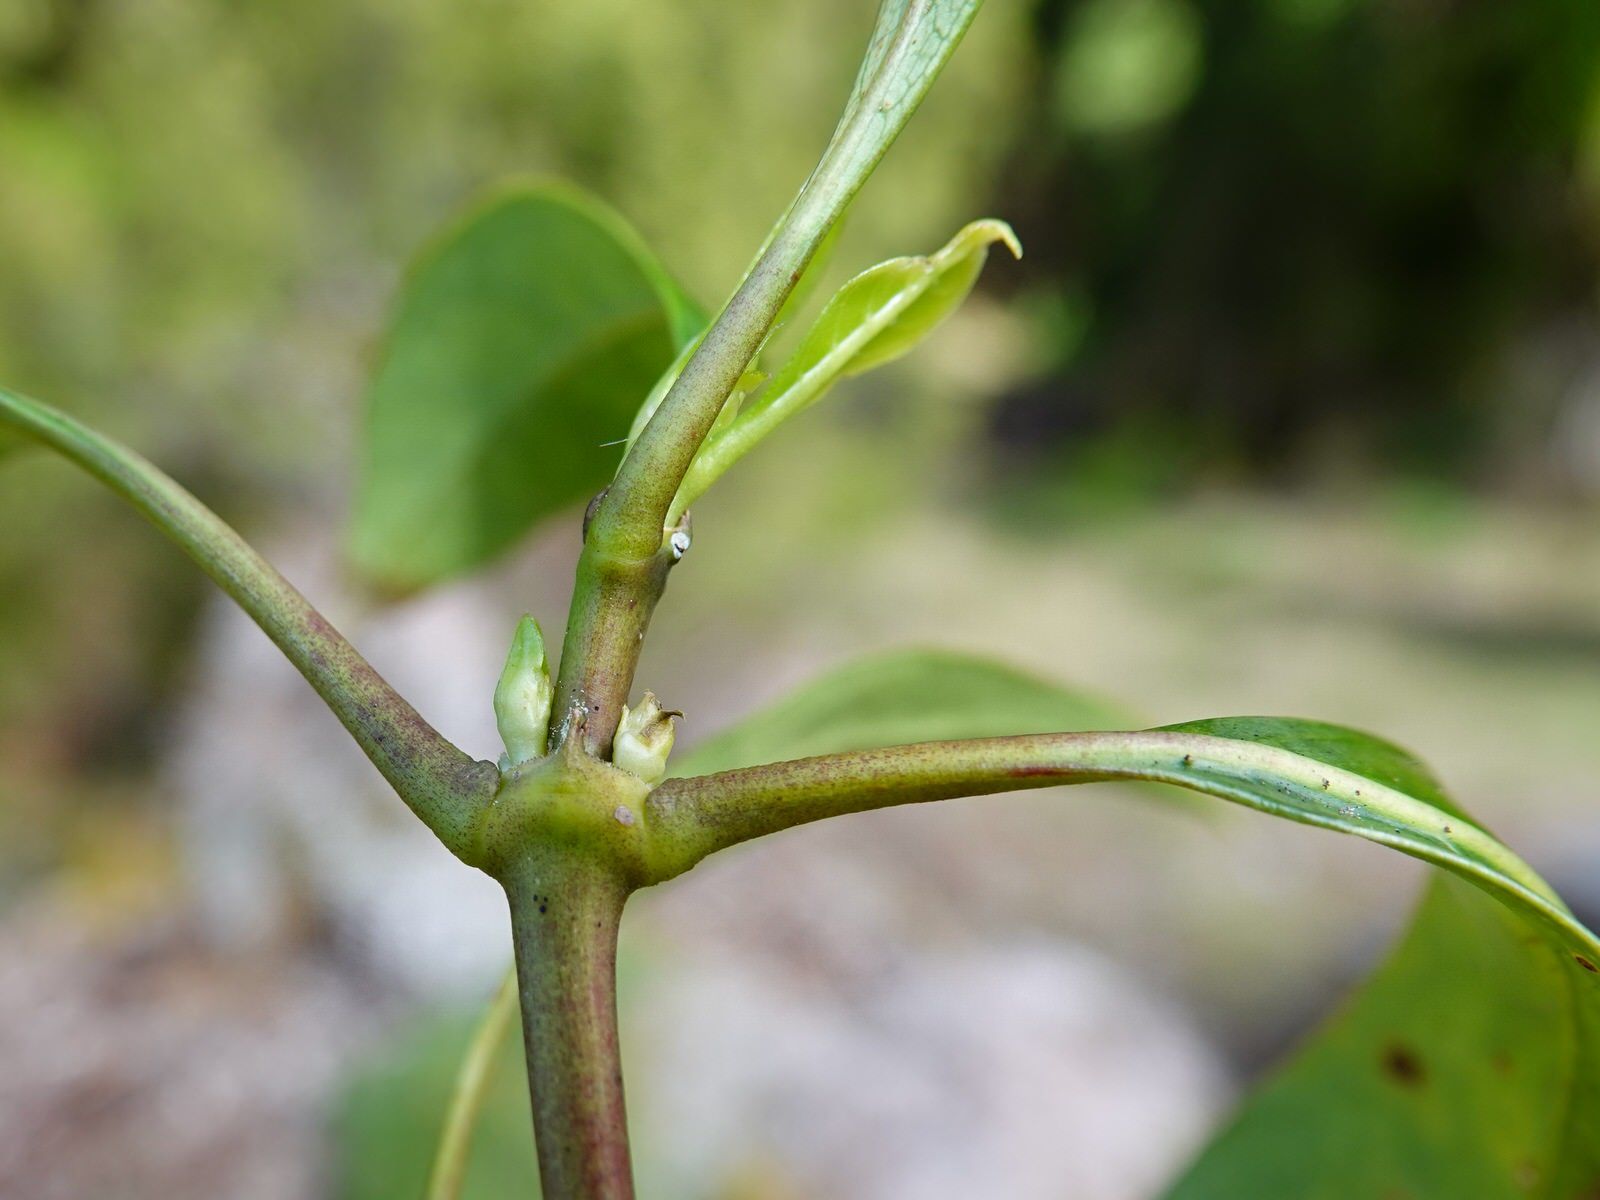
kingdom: Plantae
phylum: Tracheophyta
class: Magnoliopsida
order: Gentianales
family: Rubiaceae
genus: Coprosma
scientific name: Coprosma lucida
